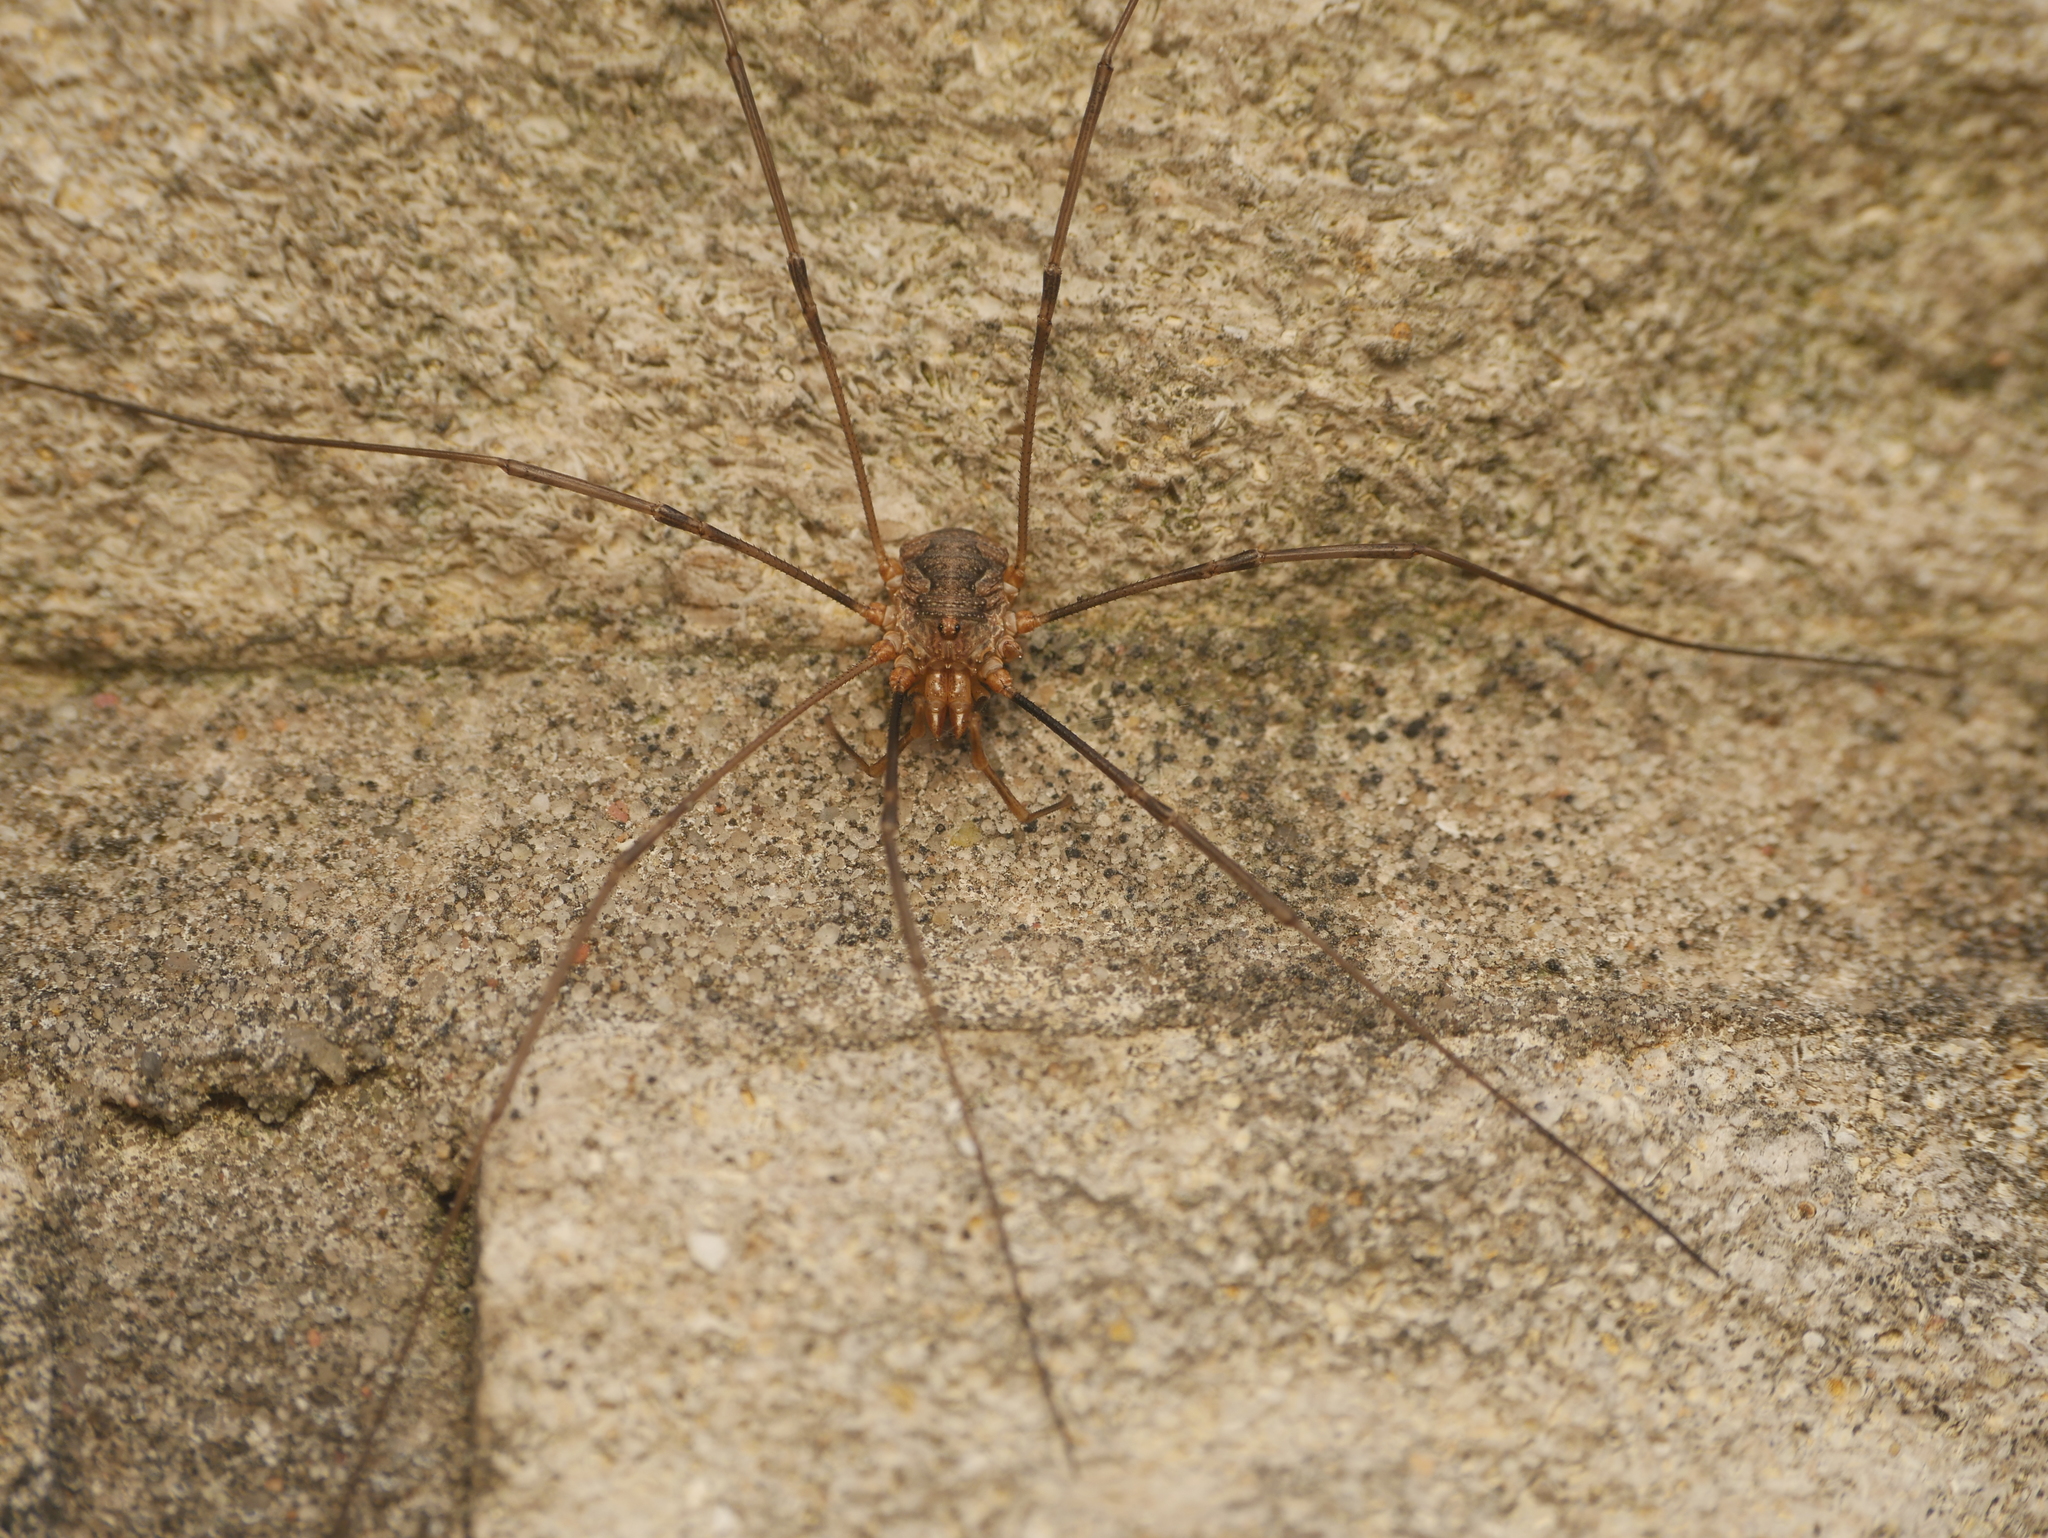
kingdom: Animalia
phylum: Arthropoda
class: Arachnida
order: Opiliones
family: Phalangiidae
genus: Phalangium
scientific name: Phalangium opilio
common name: Daddy longleg
